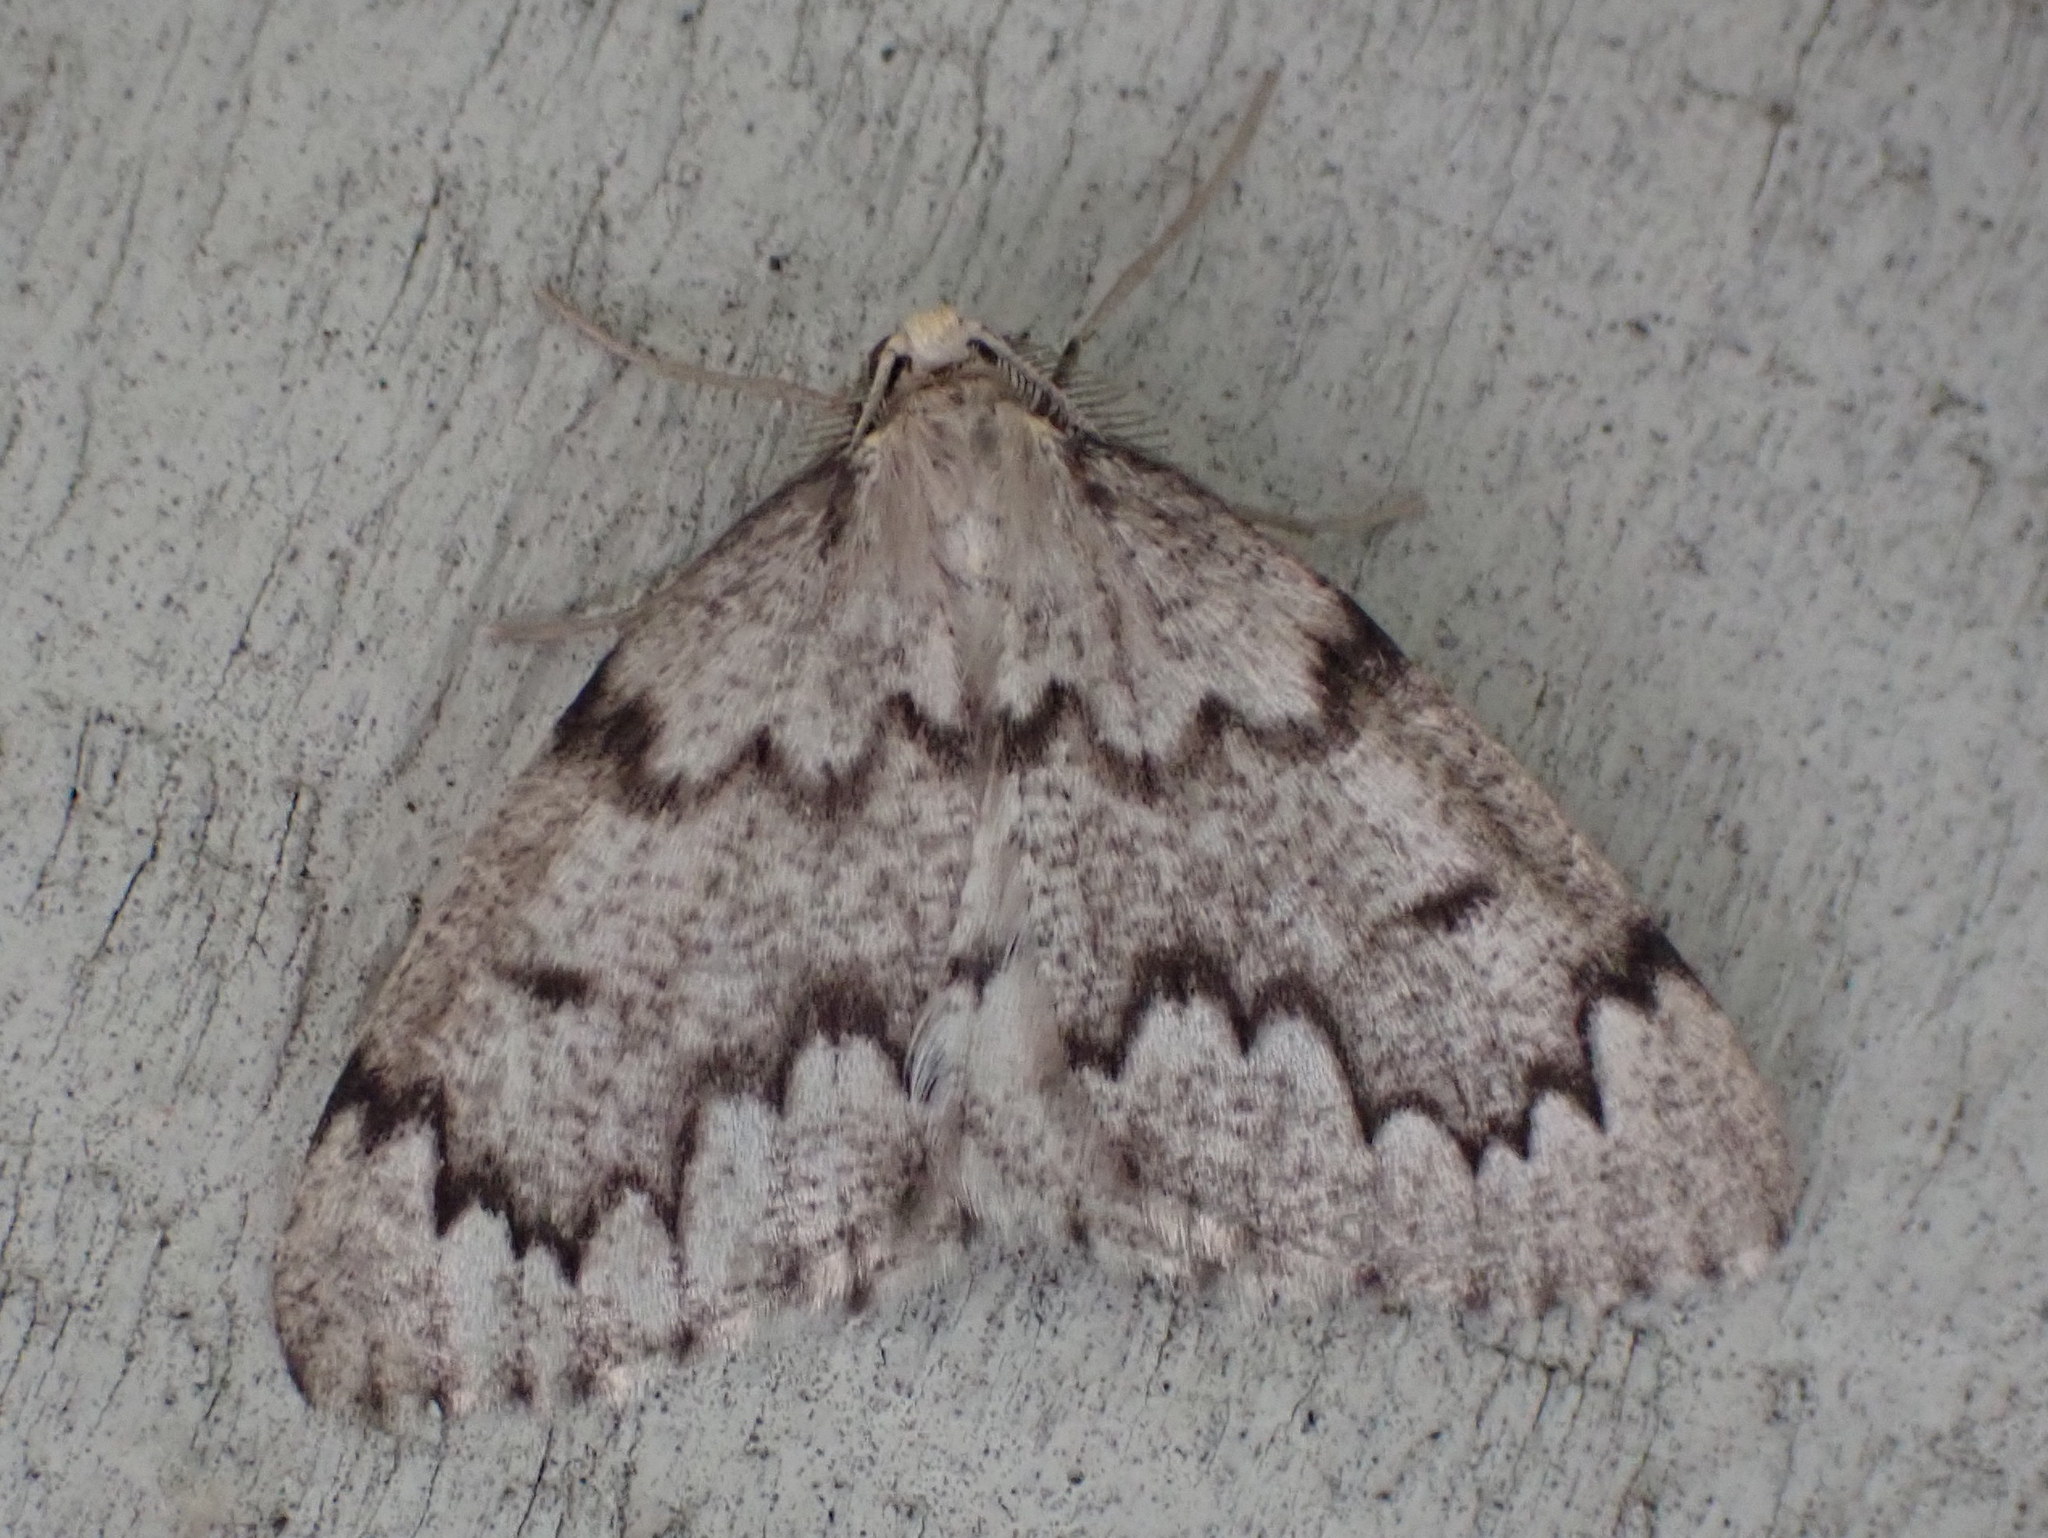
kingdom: Animalia
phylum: Arthropoda
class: Insecta
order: Lepidoptera
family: Geometridae
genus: Nepytia
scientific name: Nepytia canosaria
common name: False hemlock looper
